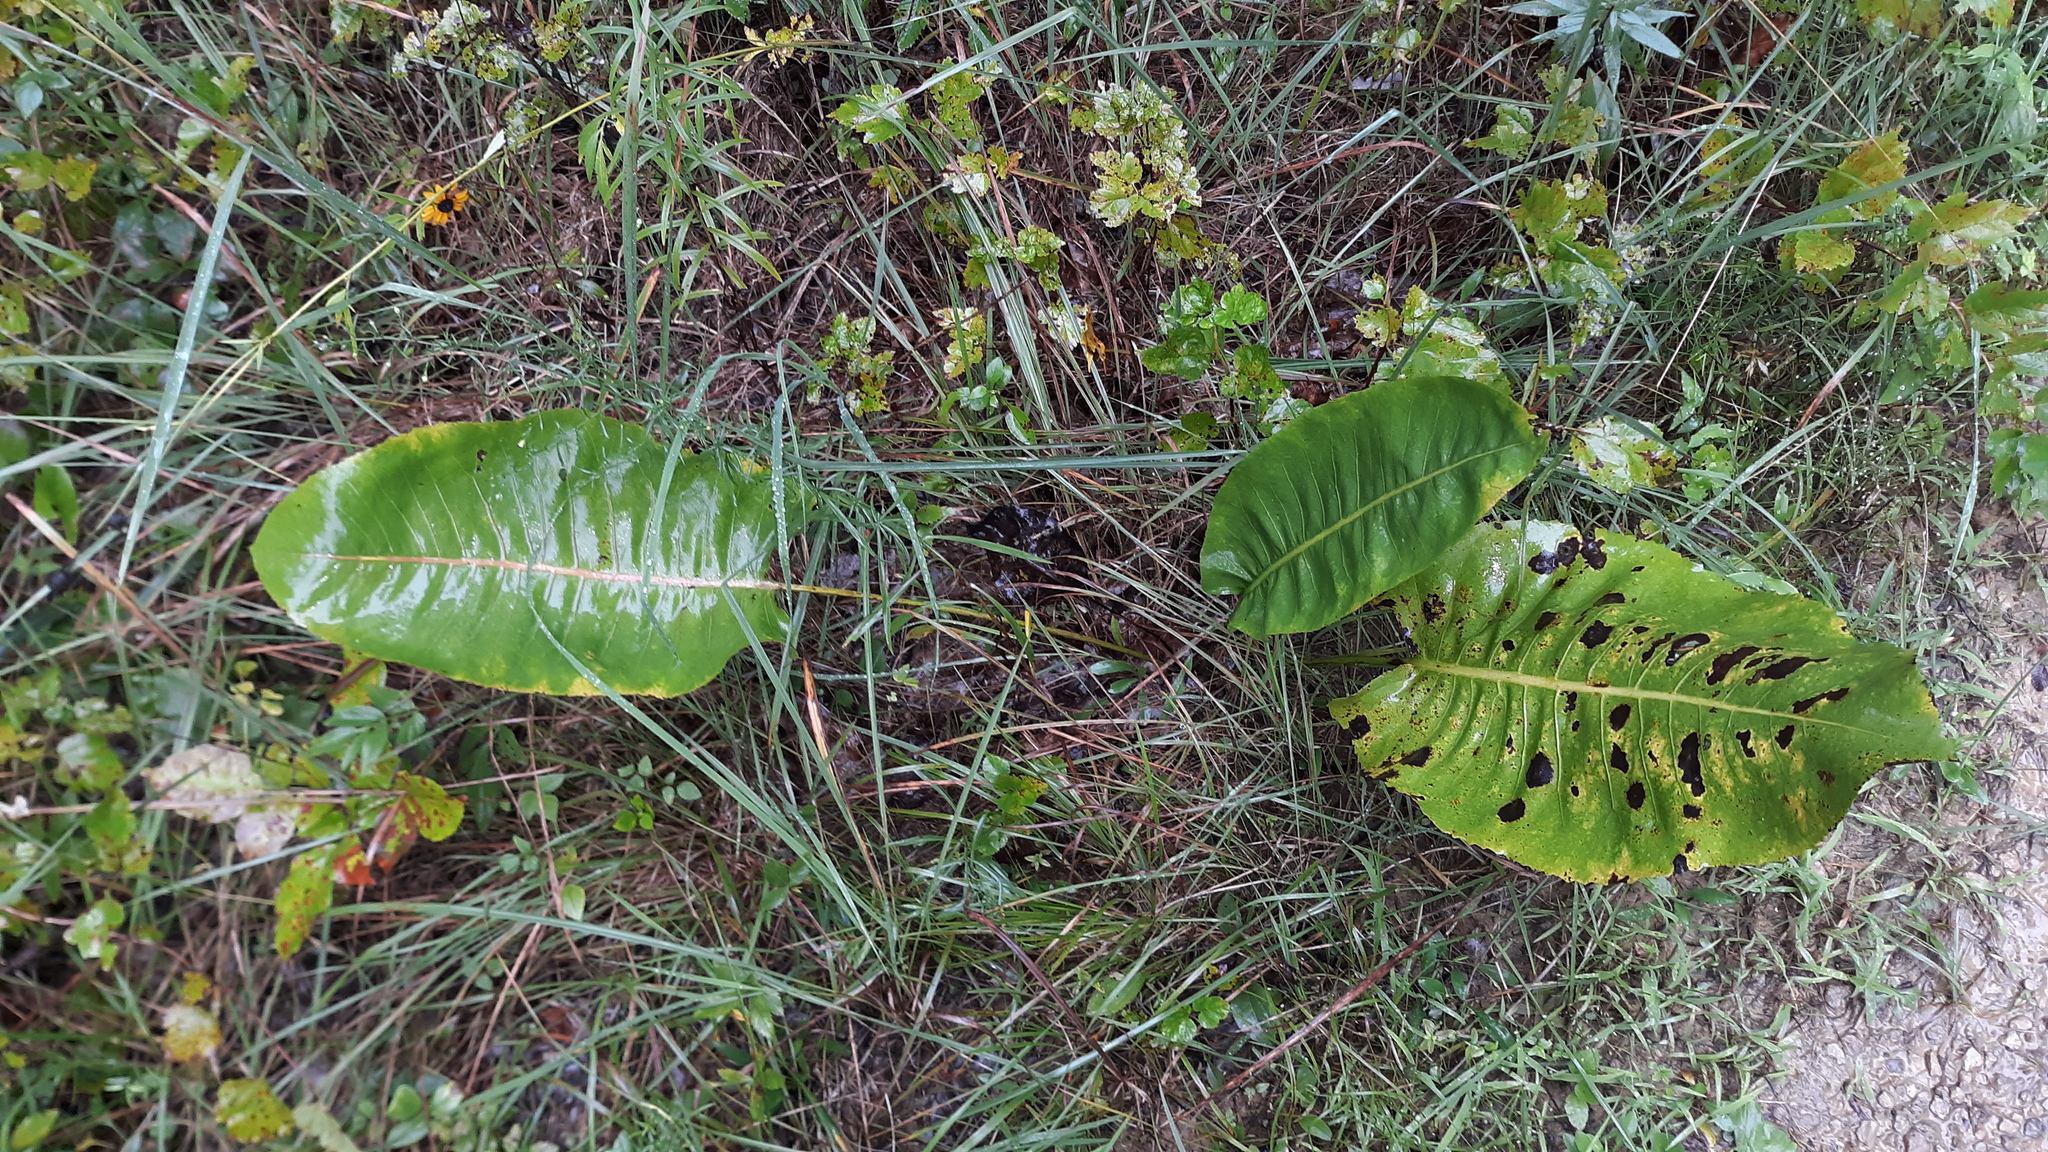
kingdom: Plantae
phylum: Tracheophyta
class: Magnoliopsida
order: Asterales
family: Asteraceae
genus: Silphium
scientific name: Silphium terebinthinaceum
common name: Basal-leaf rosinweed
